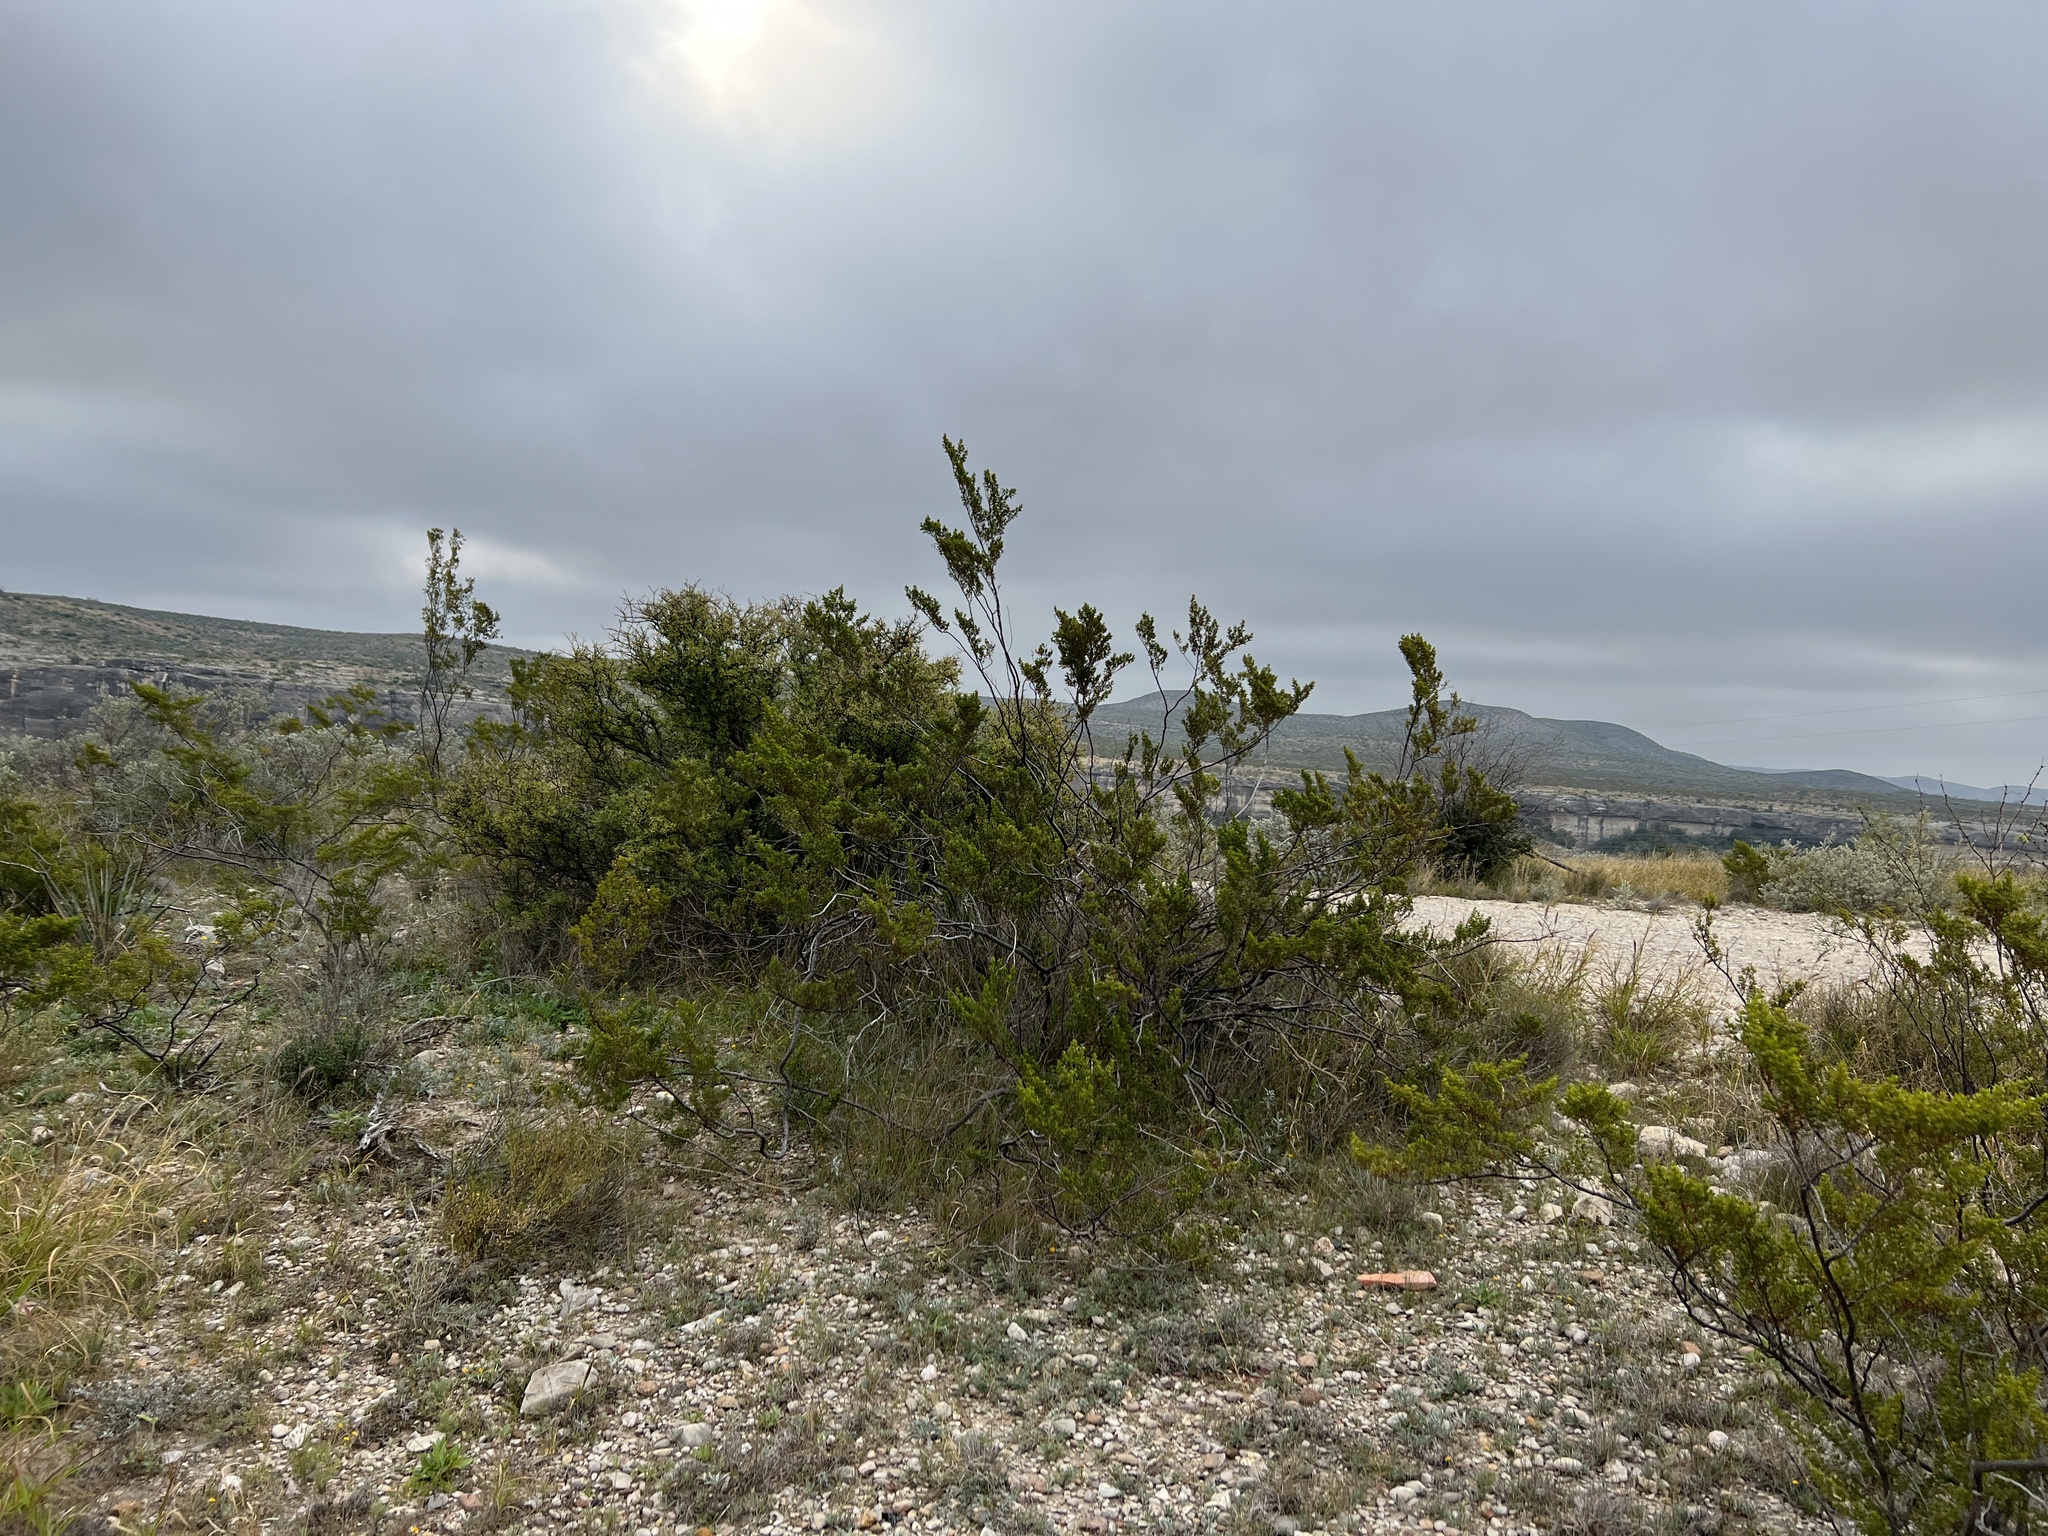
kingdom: Plantae
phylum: Tracheophyta
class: Magnoliopsida
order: Zygophyllales
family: Zygophyllaceae
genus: Larrea
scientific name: Larrea tridentata
